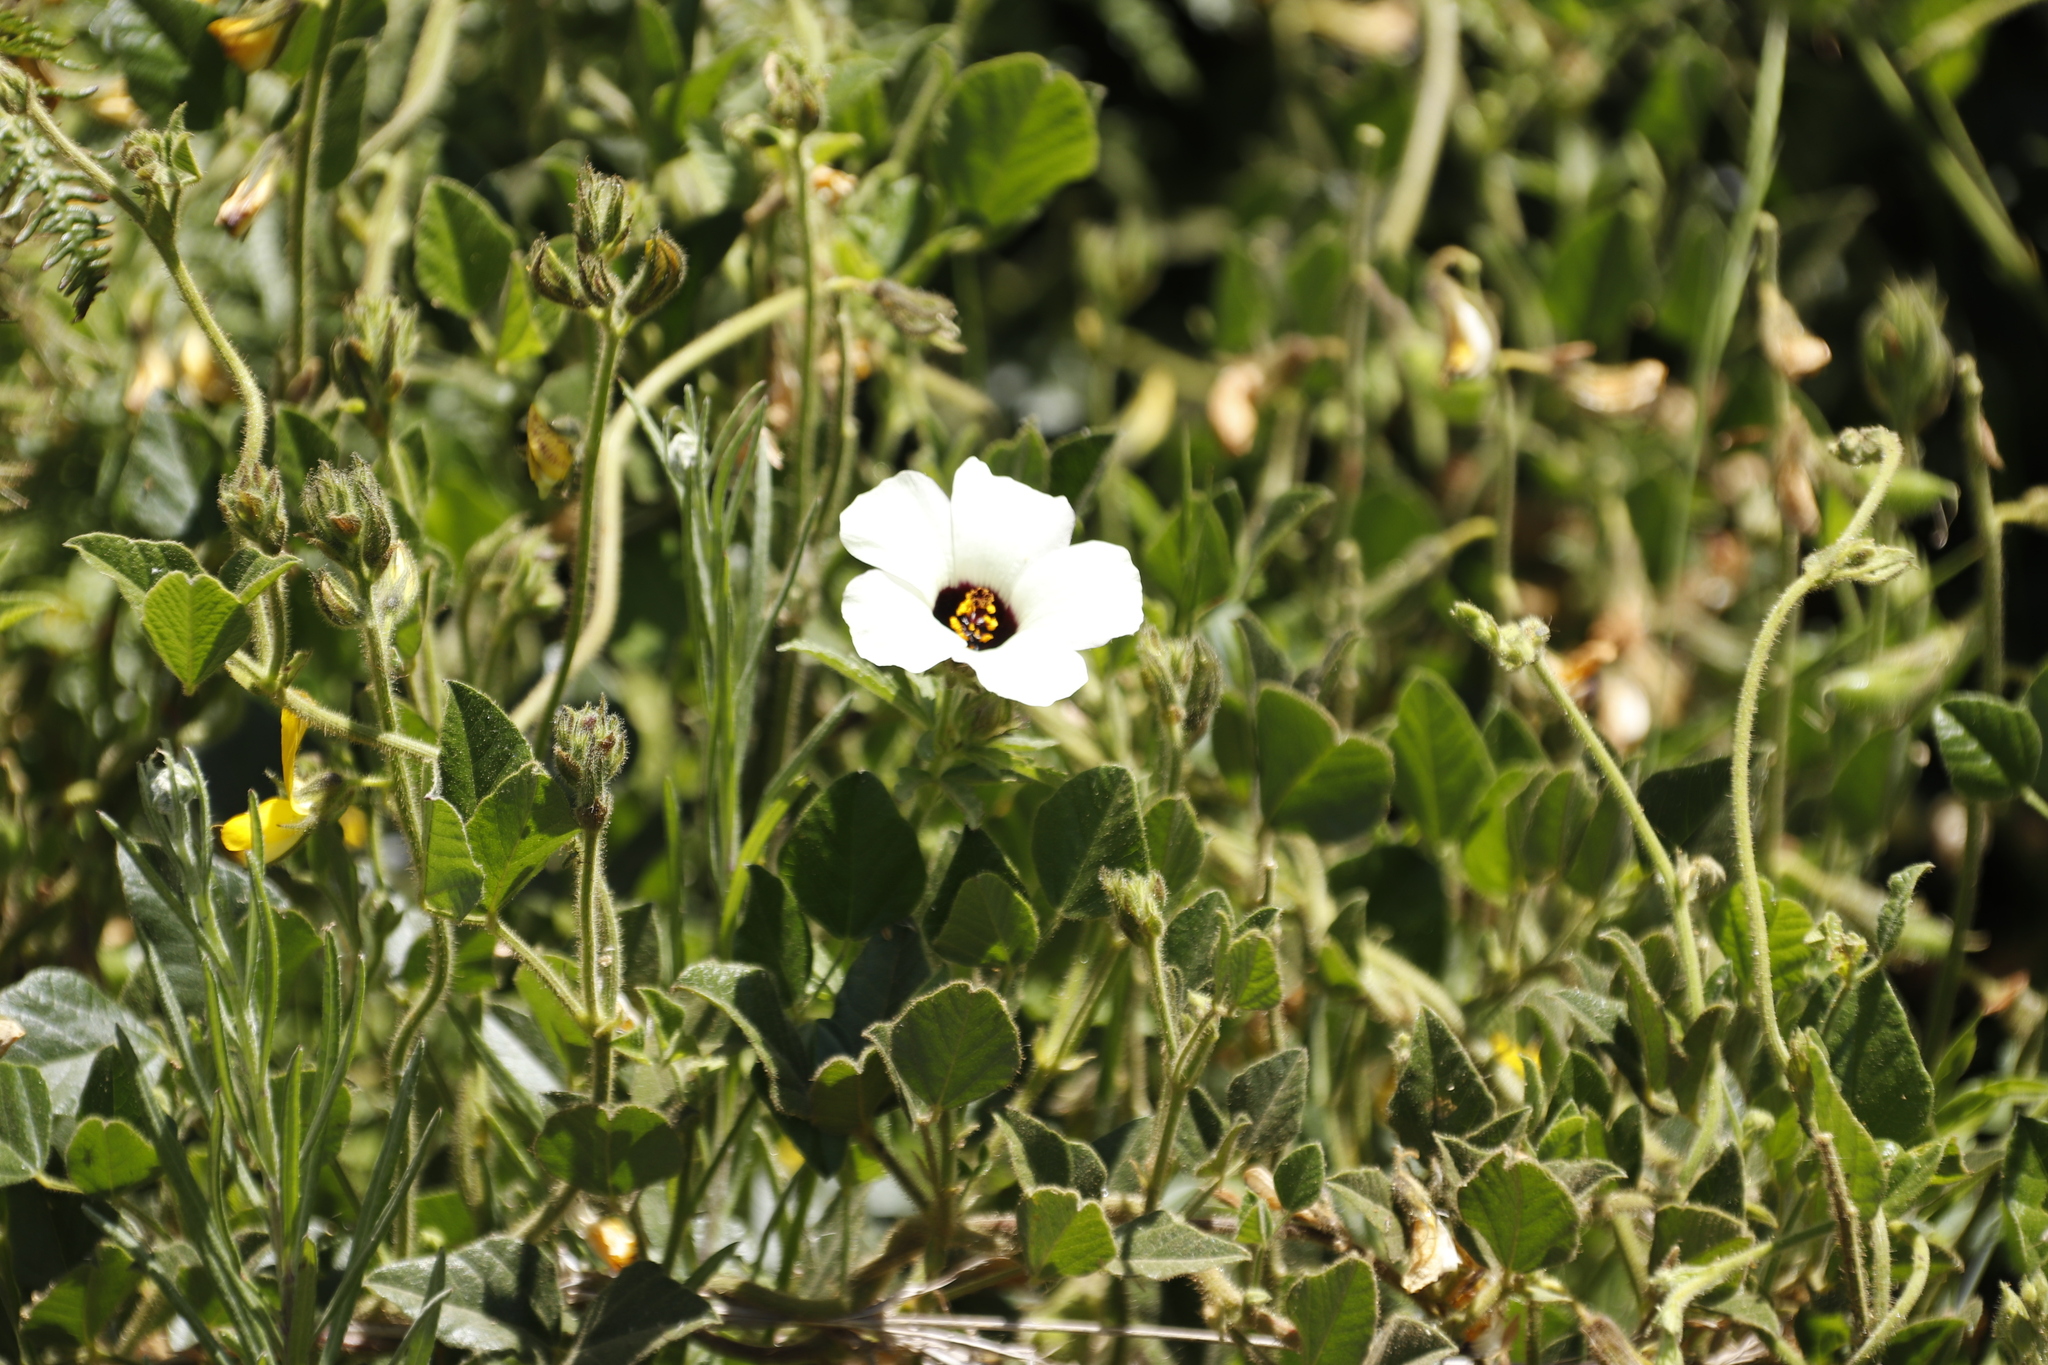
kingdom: Plantae
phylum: Tracheophyta
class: Magnoliopsida
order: Malvales
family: Malvaceae
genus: Hibiscus
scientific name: Hibiscus trionum
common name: Bladder ketmia
